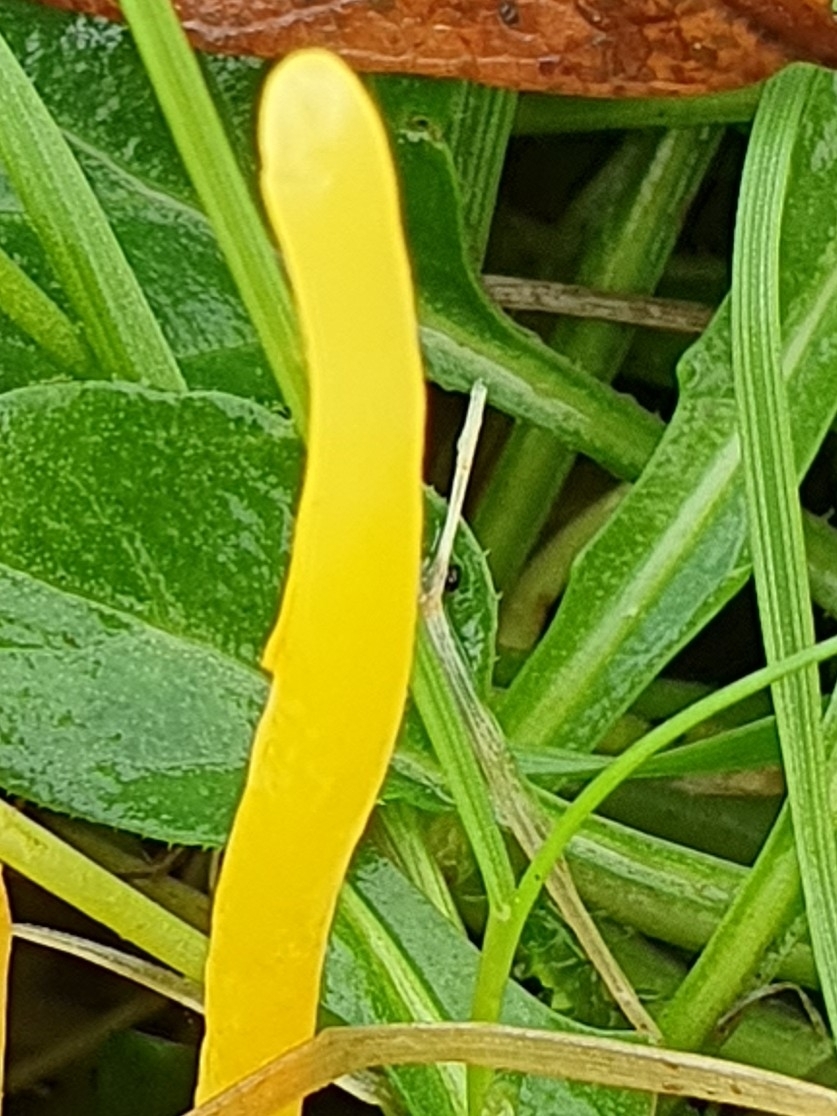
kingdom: Fungi
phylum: Basidiomycota
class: Agaricomycetes
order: Agaricales
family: Clavariaceae
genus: Clavulinopsis
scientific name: Clavulinopsis helvola
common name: Yellow club
